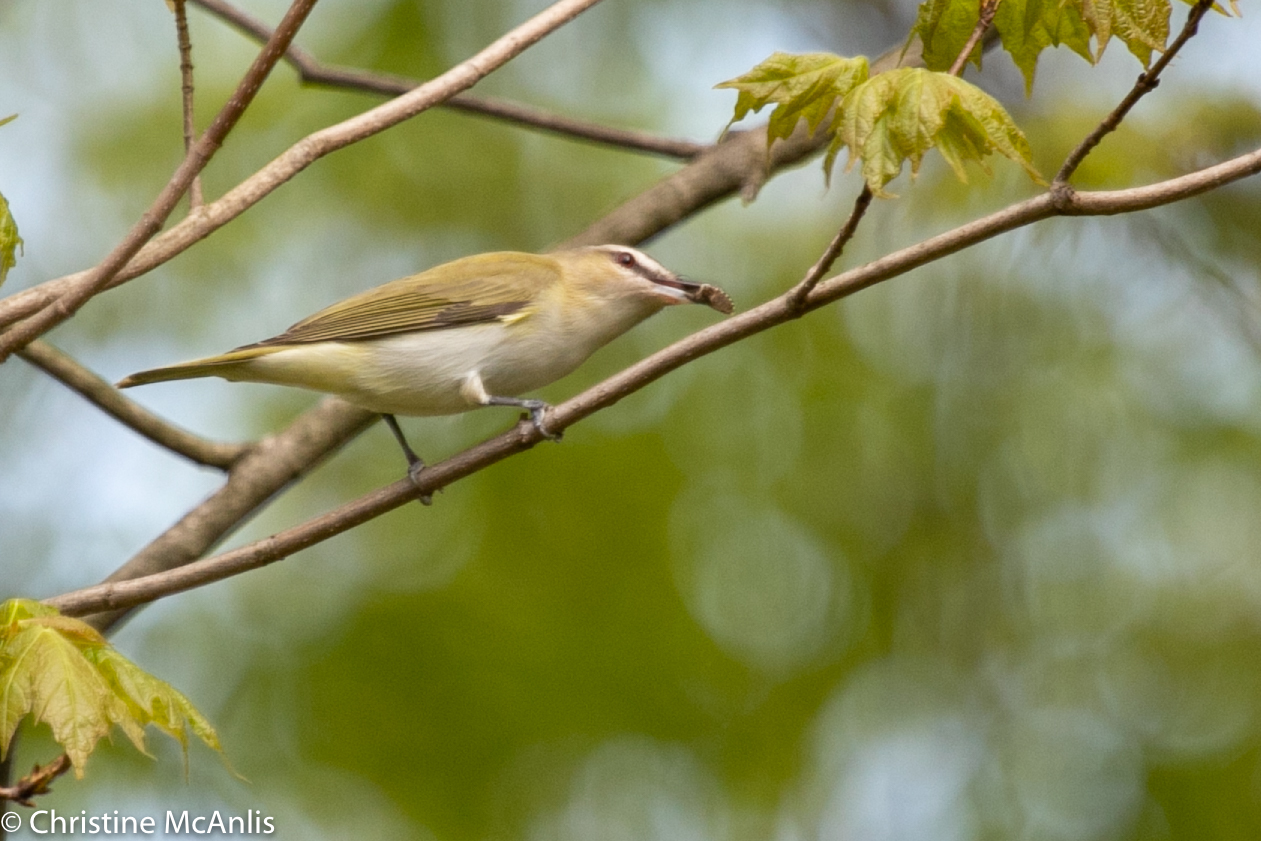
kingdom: Animalia
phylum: Chordata
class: Aves
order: Passeriformes
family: Vireonidae
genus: Vireo
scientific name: Vireo olivaceus
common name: Red-eyed vireo
